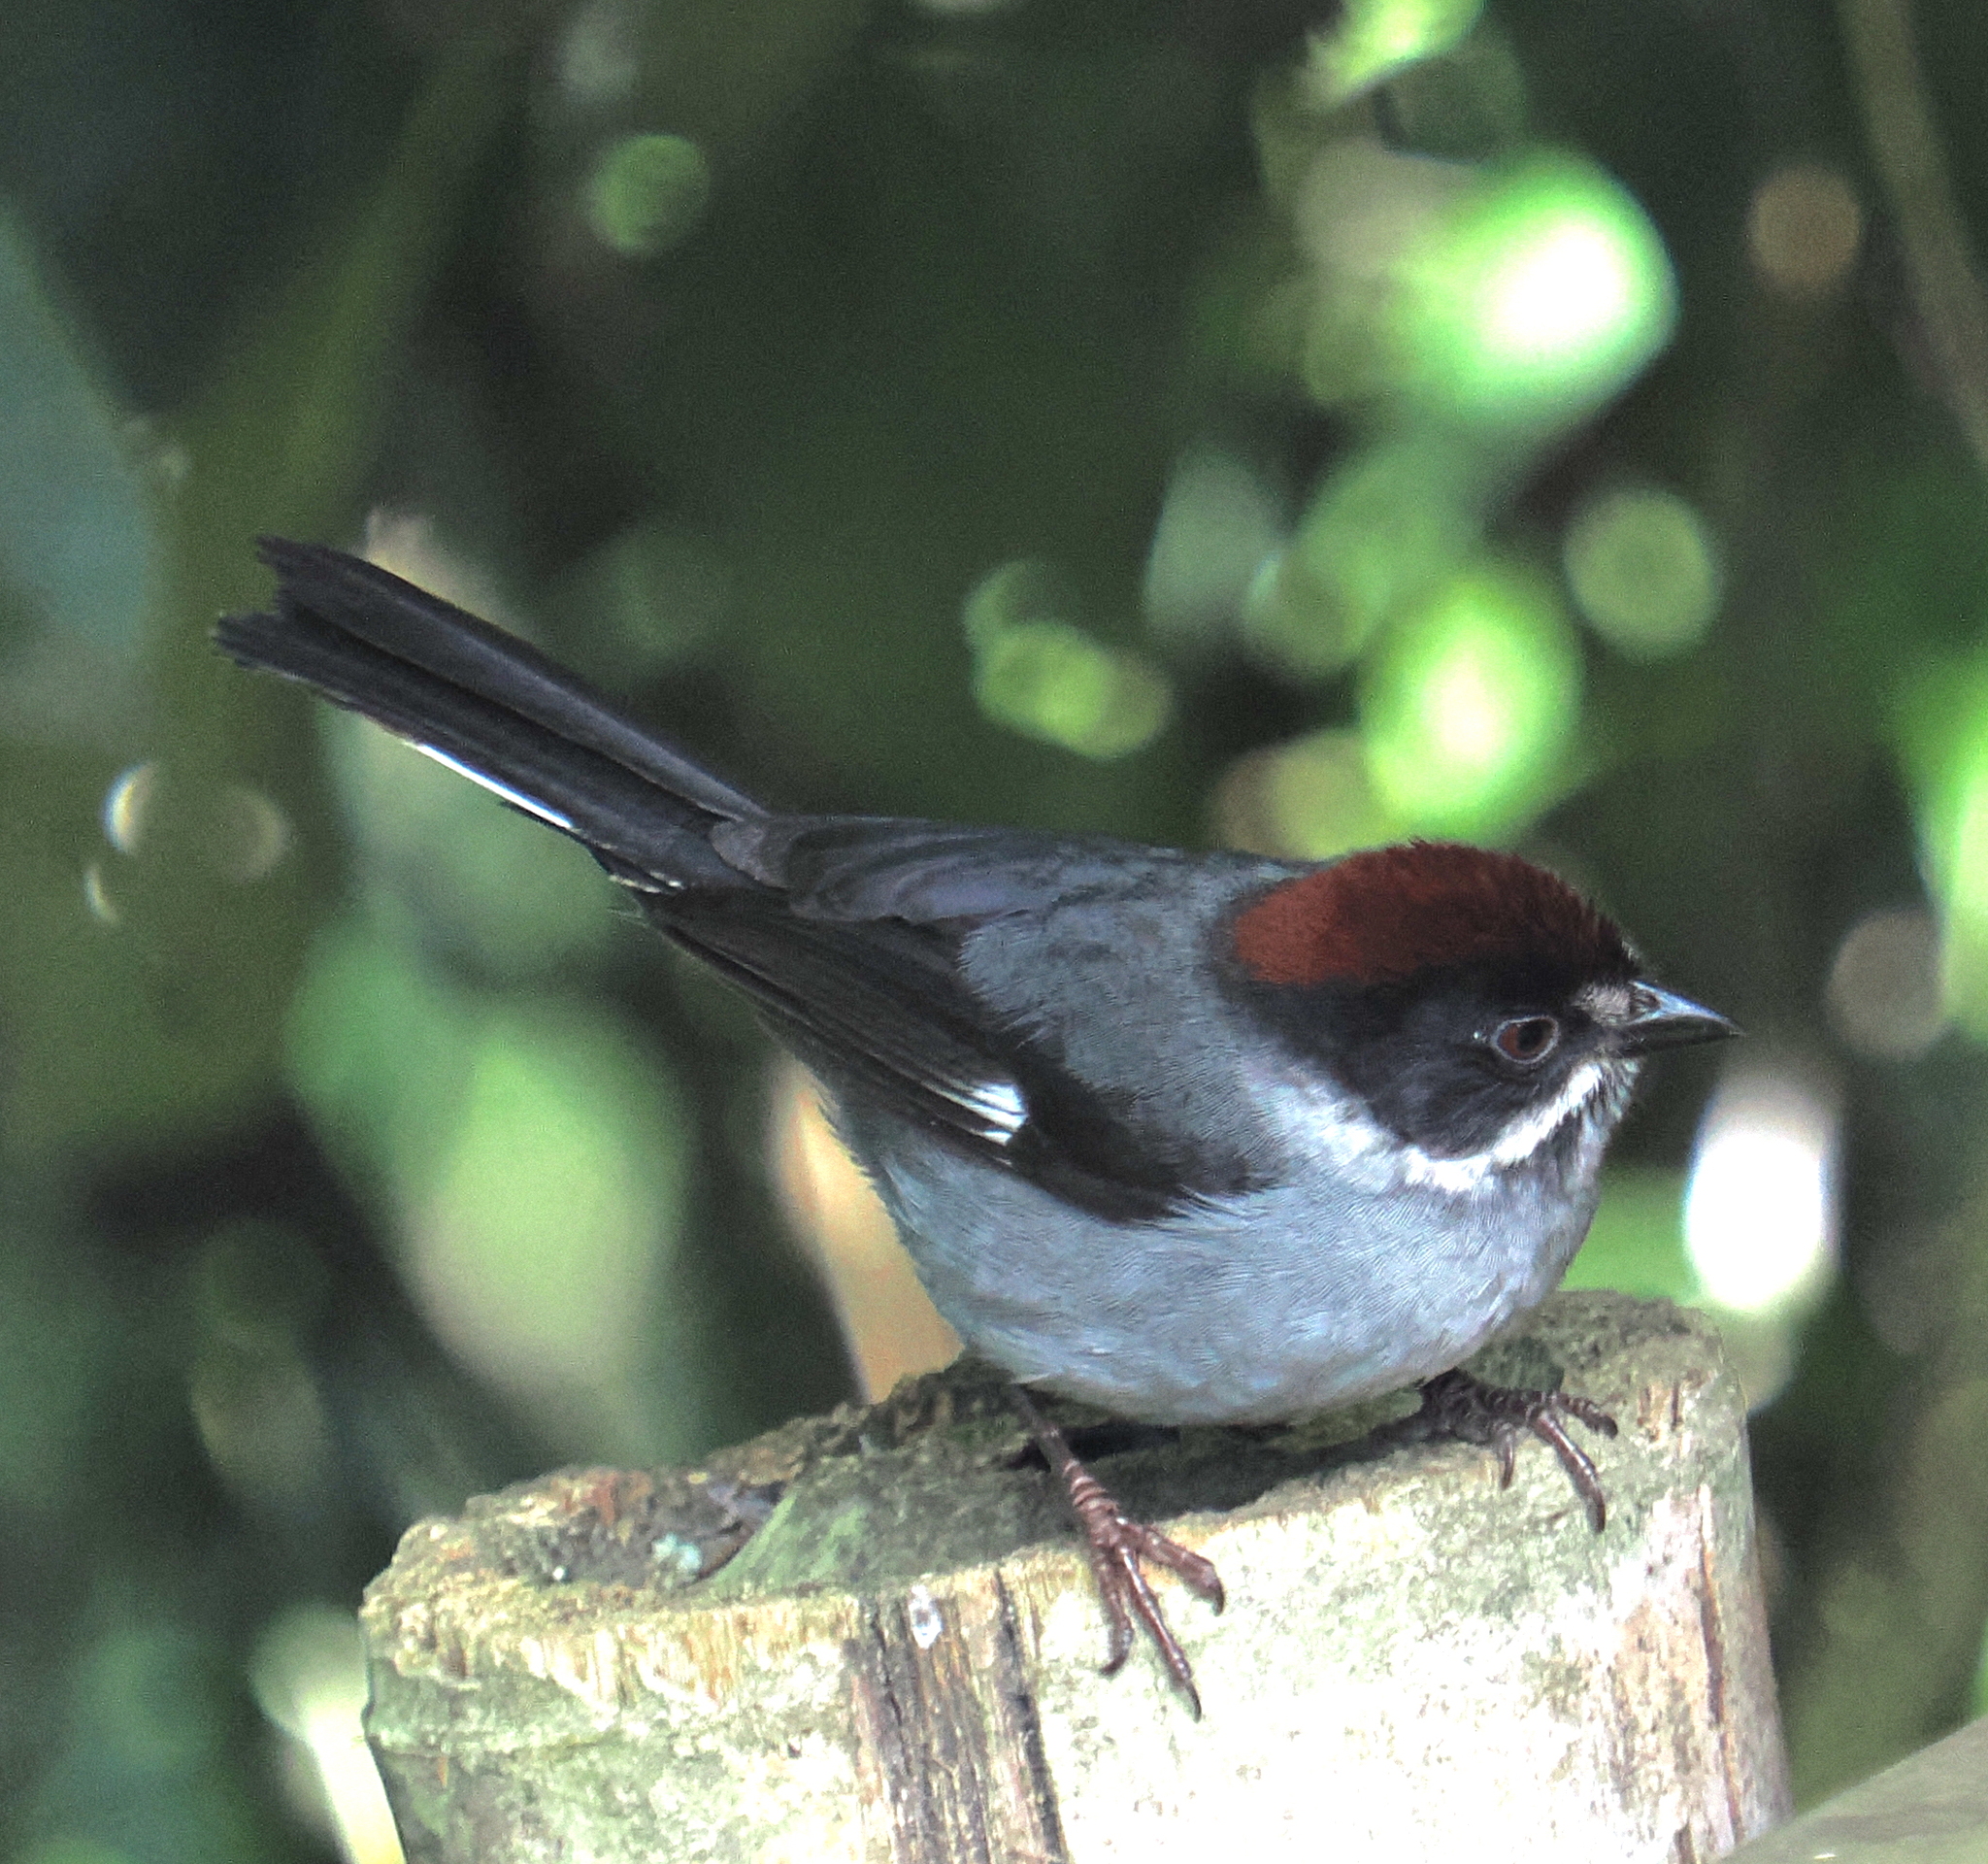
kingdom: Animalia
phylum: Chordata
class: Aves
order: Passeriformes
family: Passerellidae
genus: Atlapetes
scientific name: Atlapetes schistaceus
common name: Slaty brushfinch
